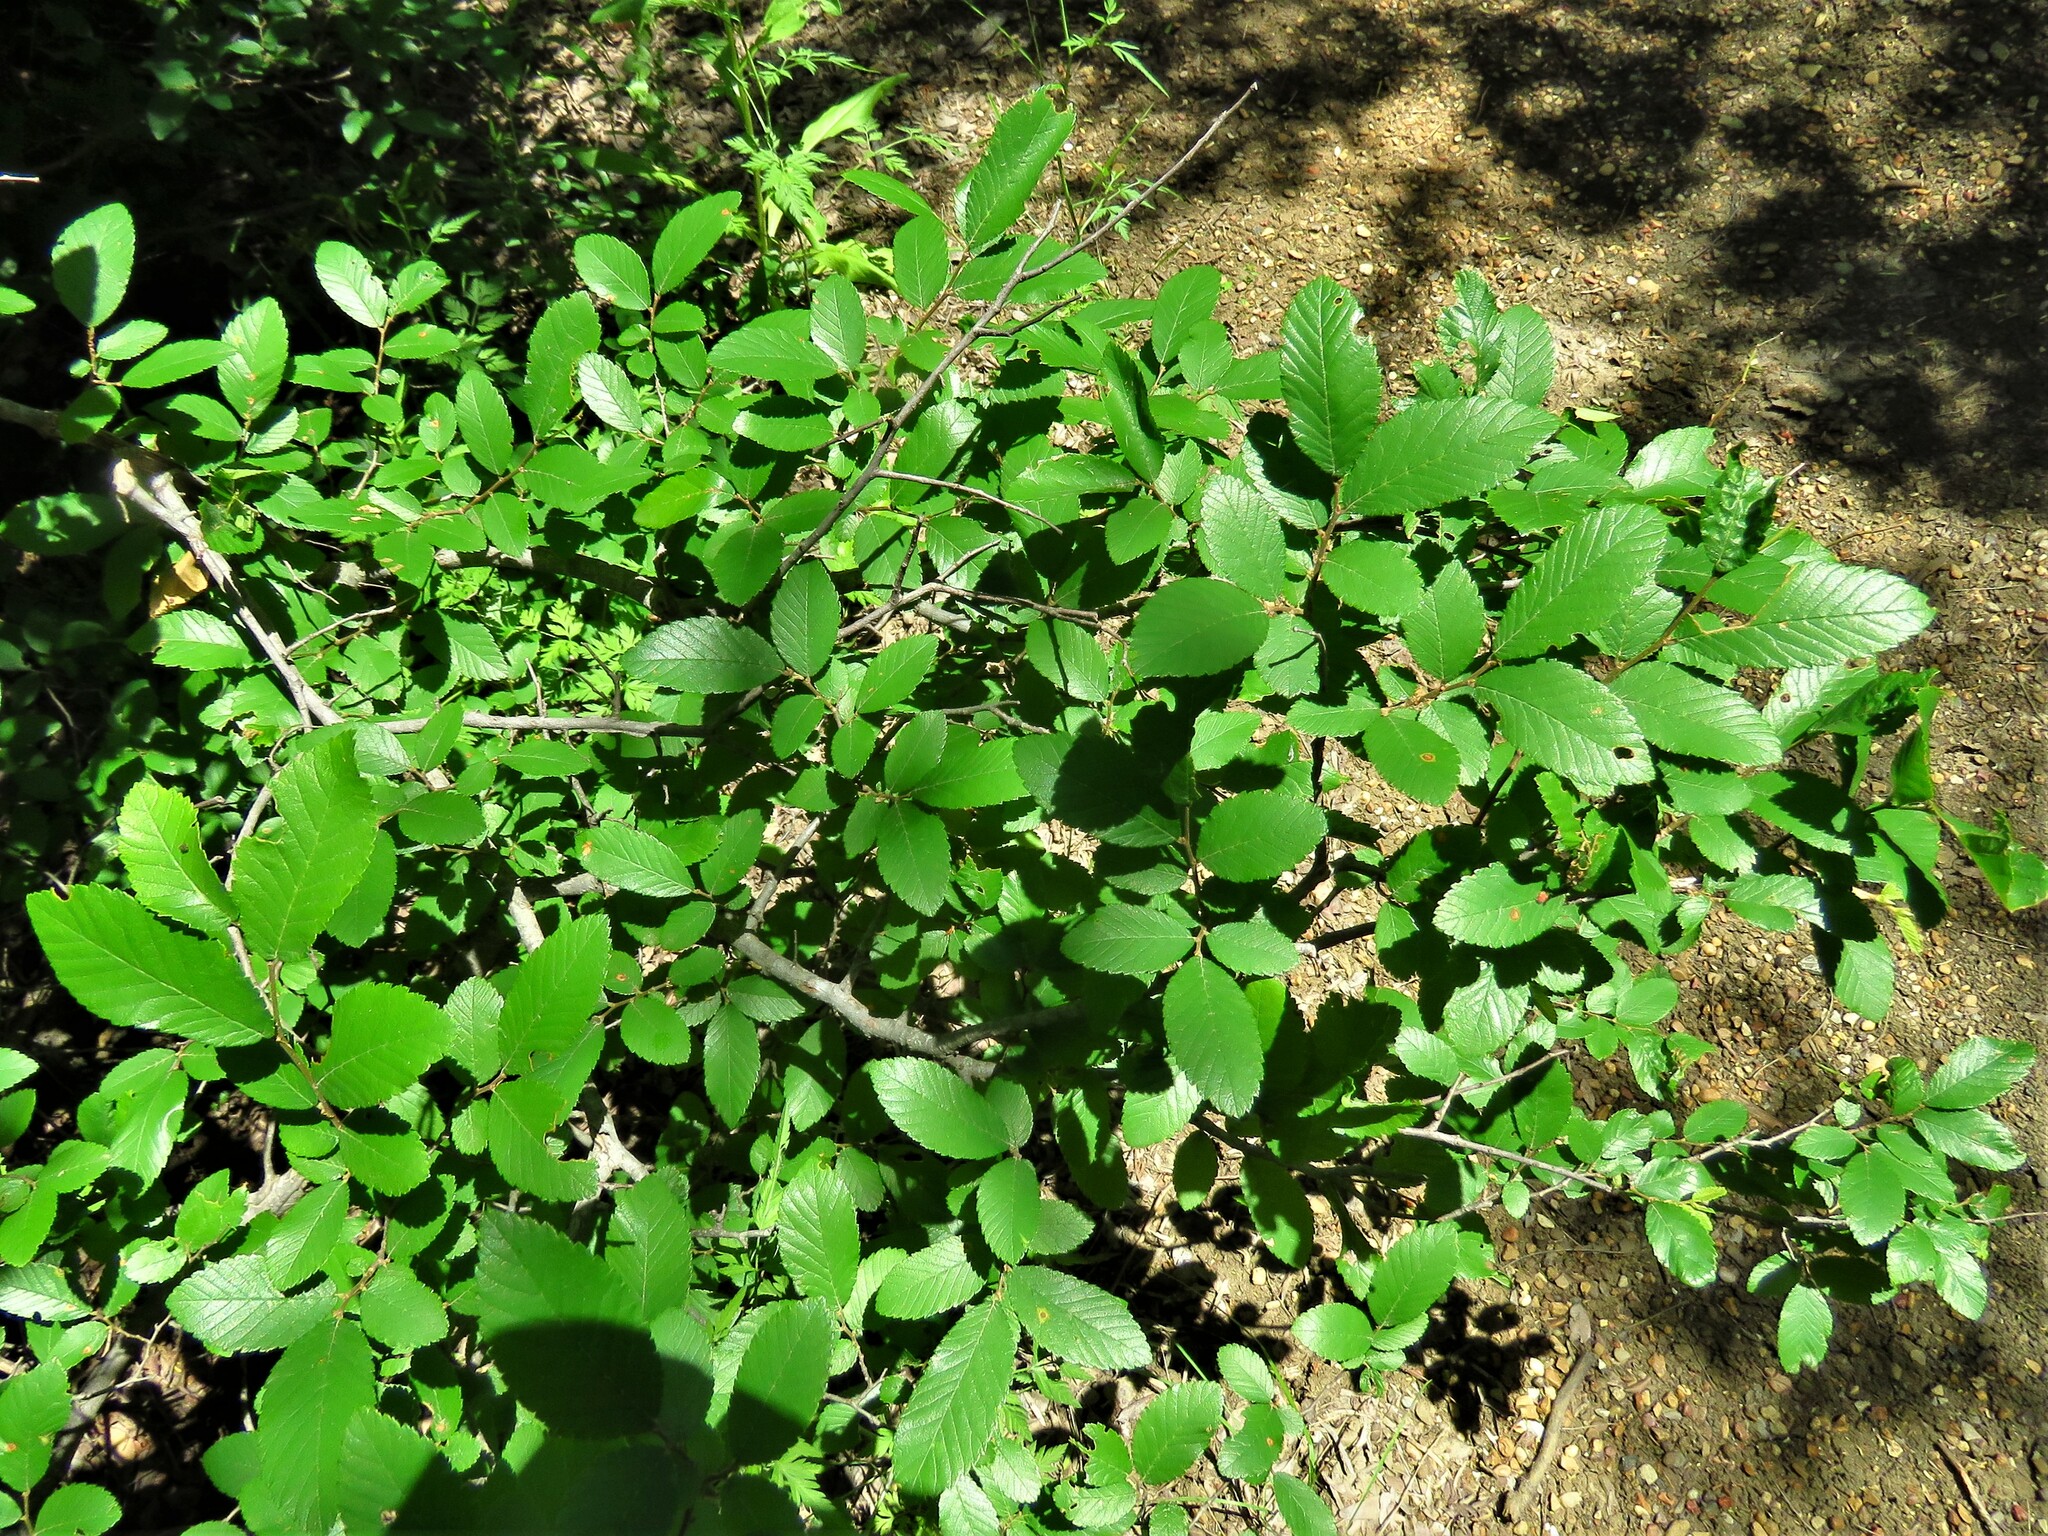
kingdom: Plantae
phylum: Tracheophyta
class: Magnoliopsida
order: Rosales
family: Ulmaceae
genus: Ulmus
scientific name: Ulmus crassifolia
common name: Basket elm
